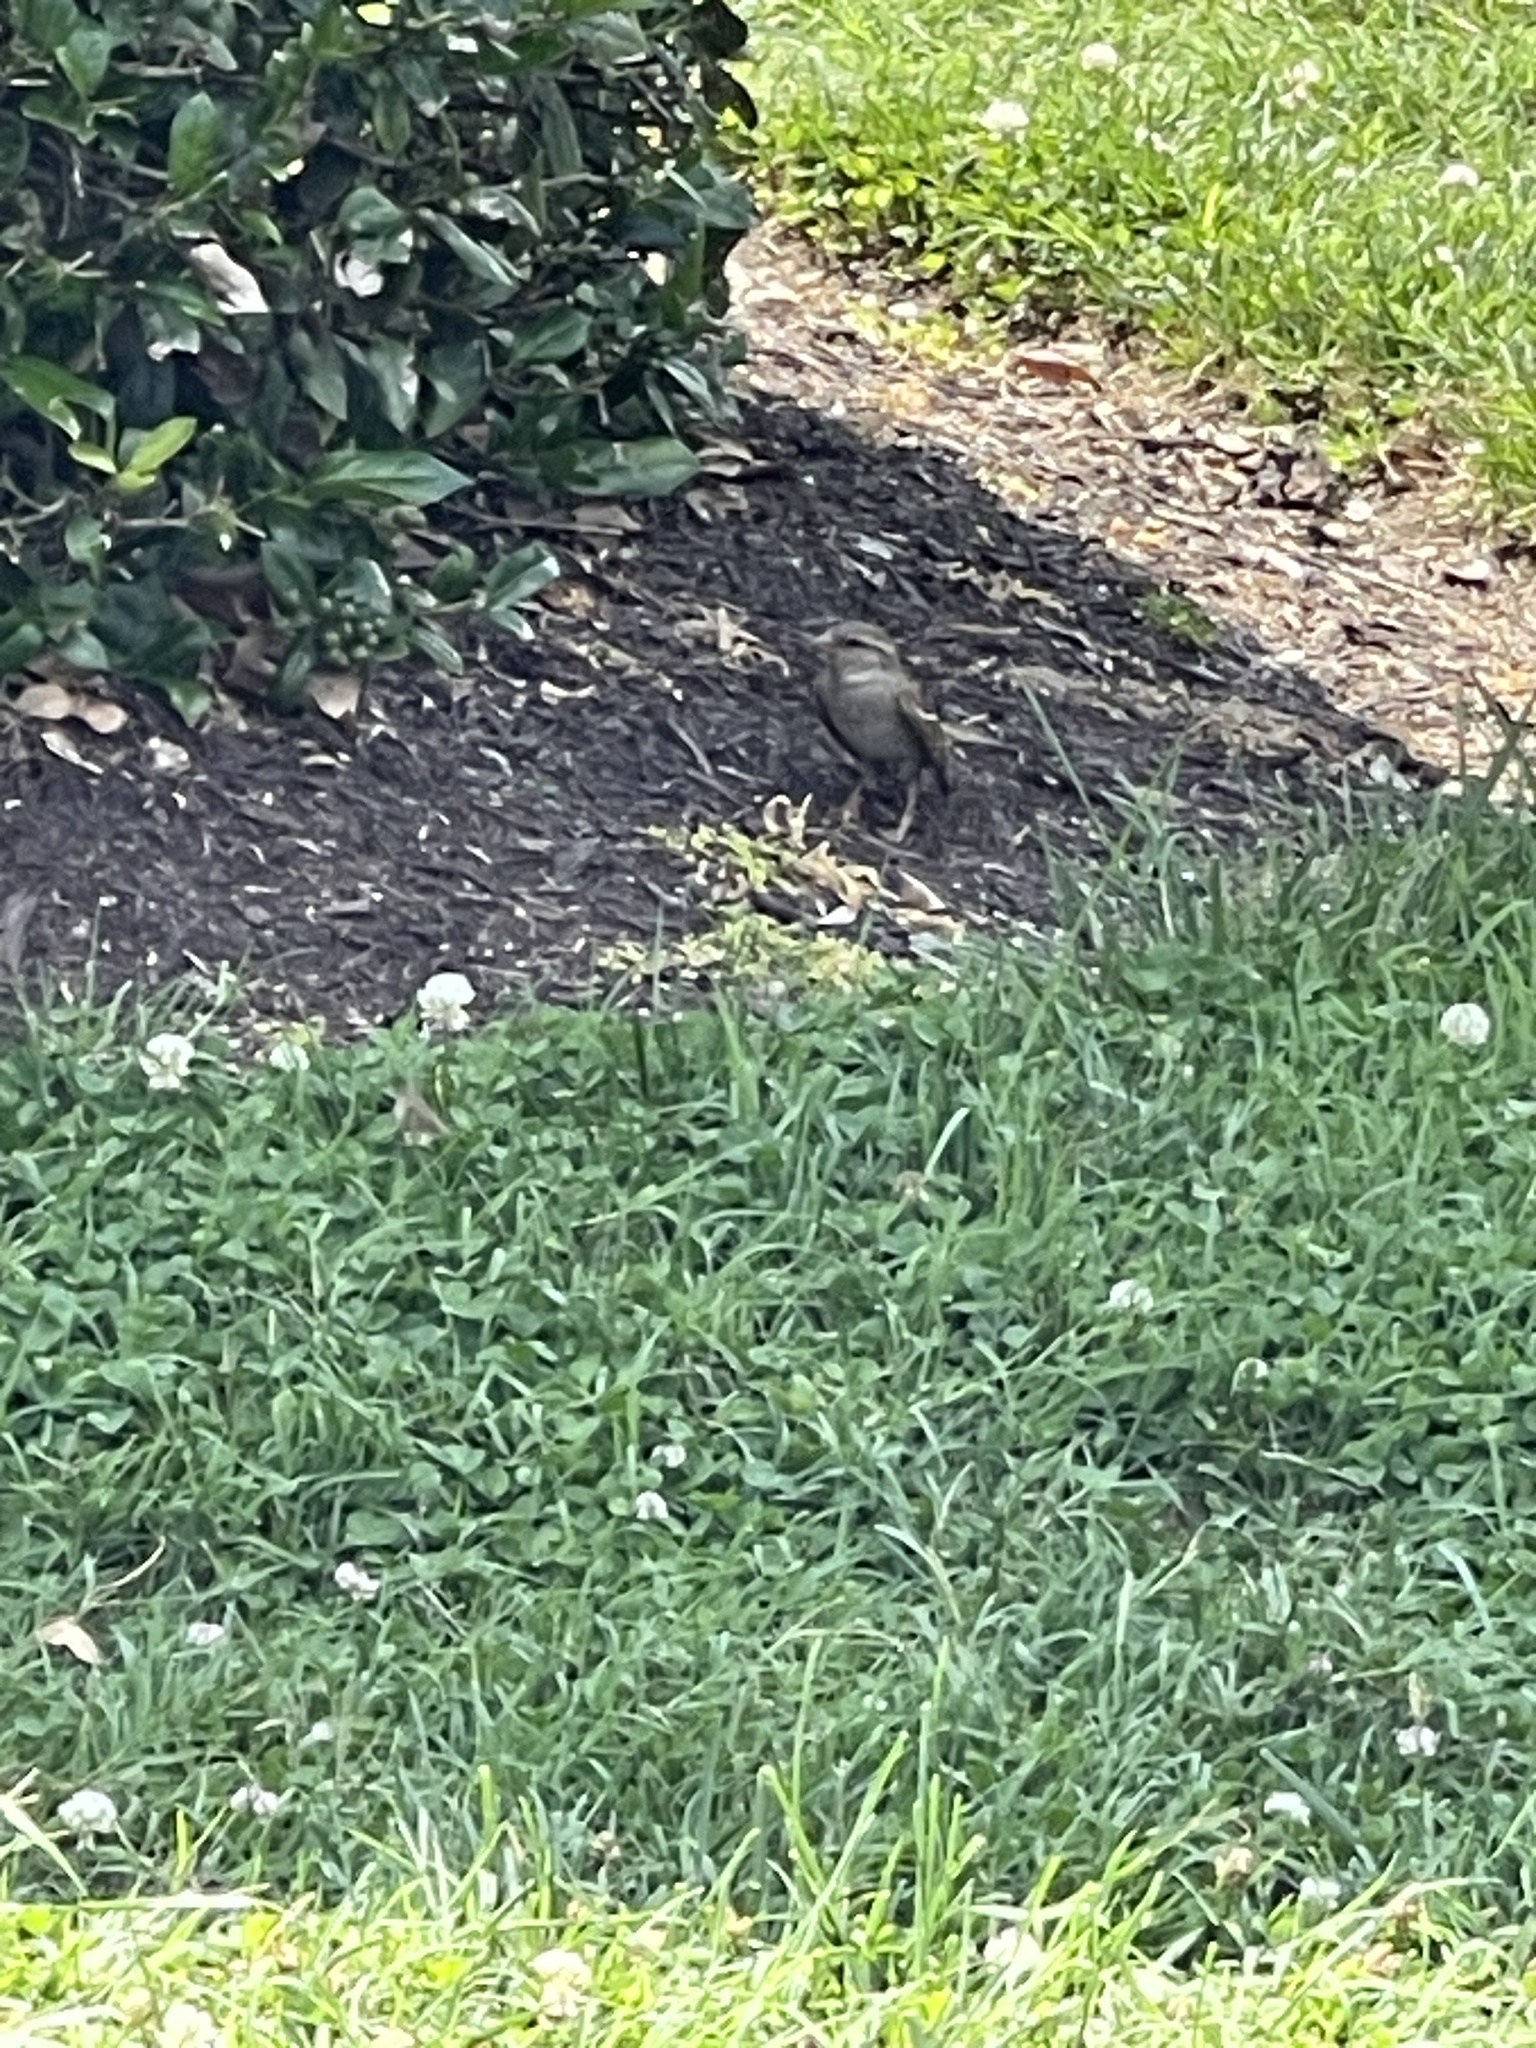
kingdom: Animalia
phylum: Chordata
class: Aves
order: Passeriformes
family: Passeridae
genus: Passer
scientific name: Passer domesticus
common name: House sparrow
